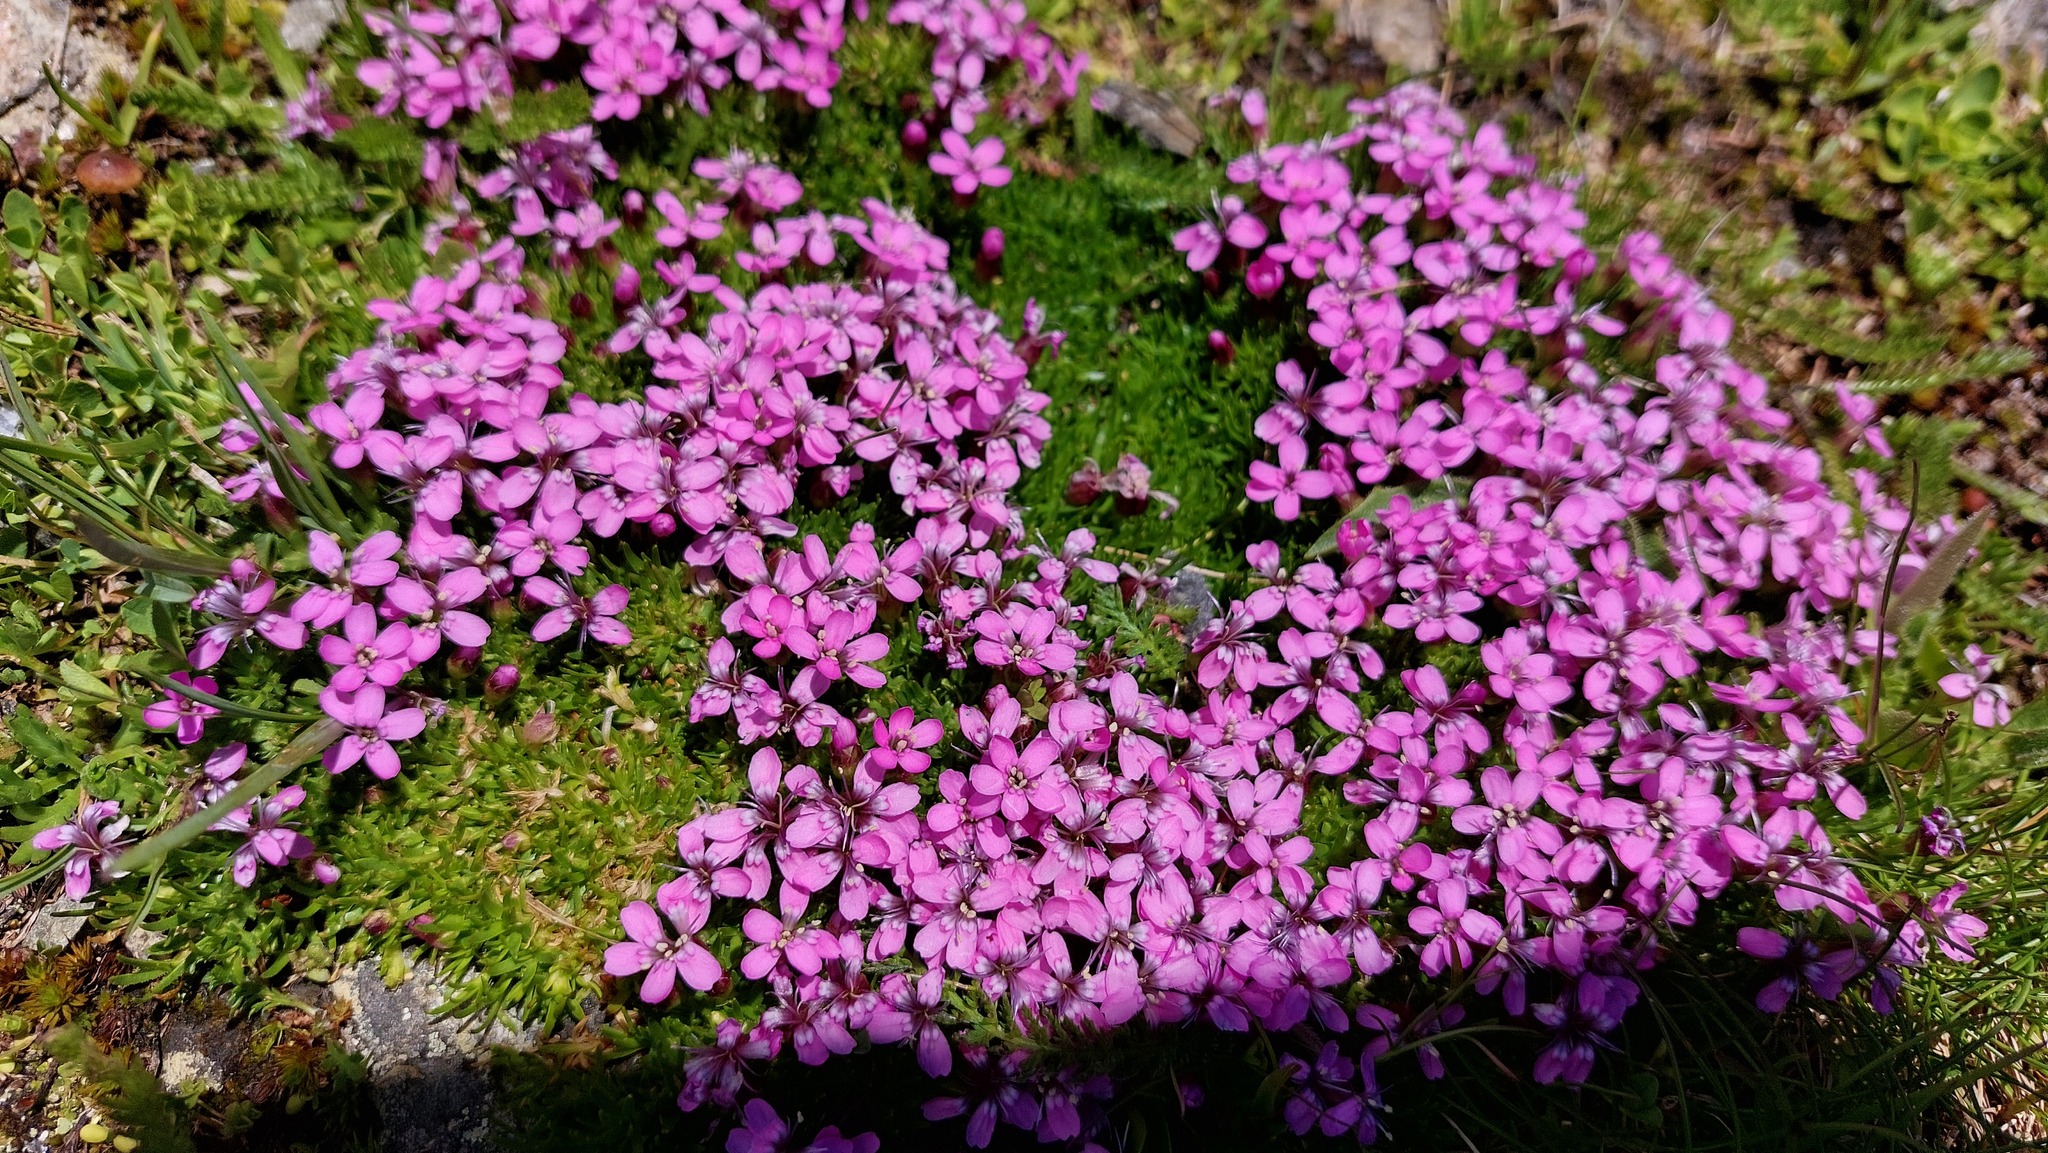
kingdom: Plantae
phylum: Tracheophyta
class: Magnoliopsida
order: Caryophyllales
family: Caryophyllaceae
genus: Silene
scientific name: Silene acaulis
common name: Moss campion
